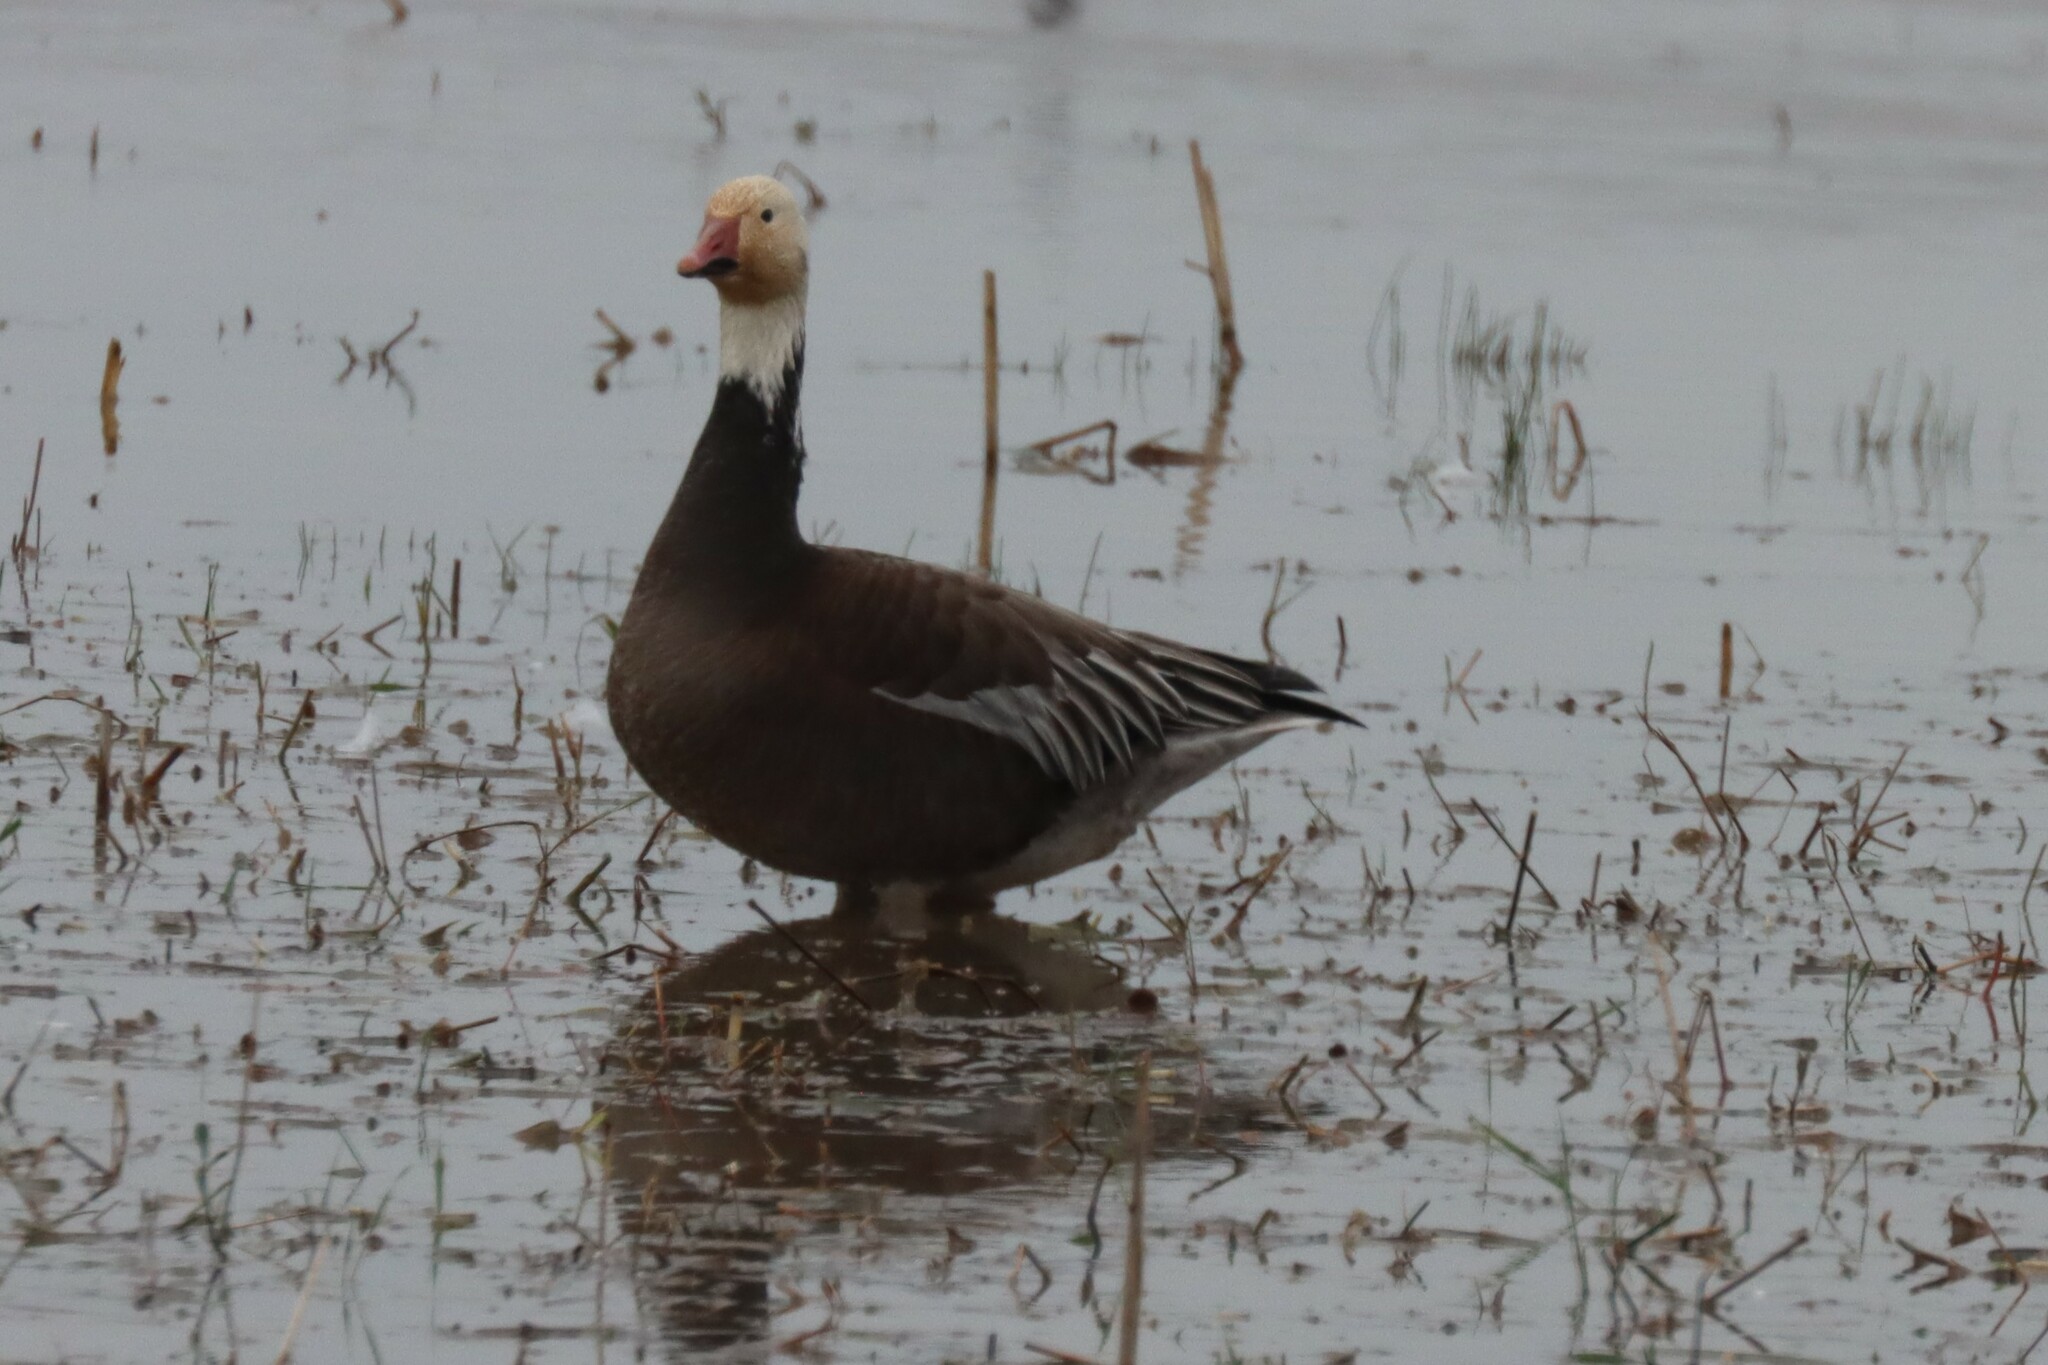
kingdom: Animalia
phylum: Chordata
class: Aves
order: Anseriformes
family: Anatidae
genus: Anser
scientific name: Anser caerulescens
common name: Snow goose
